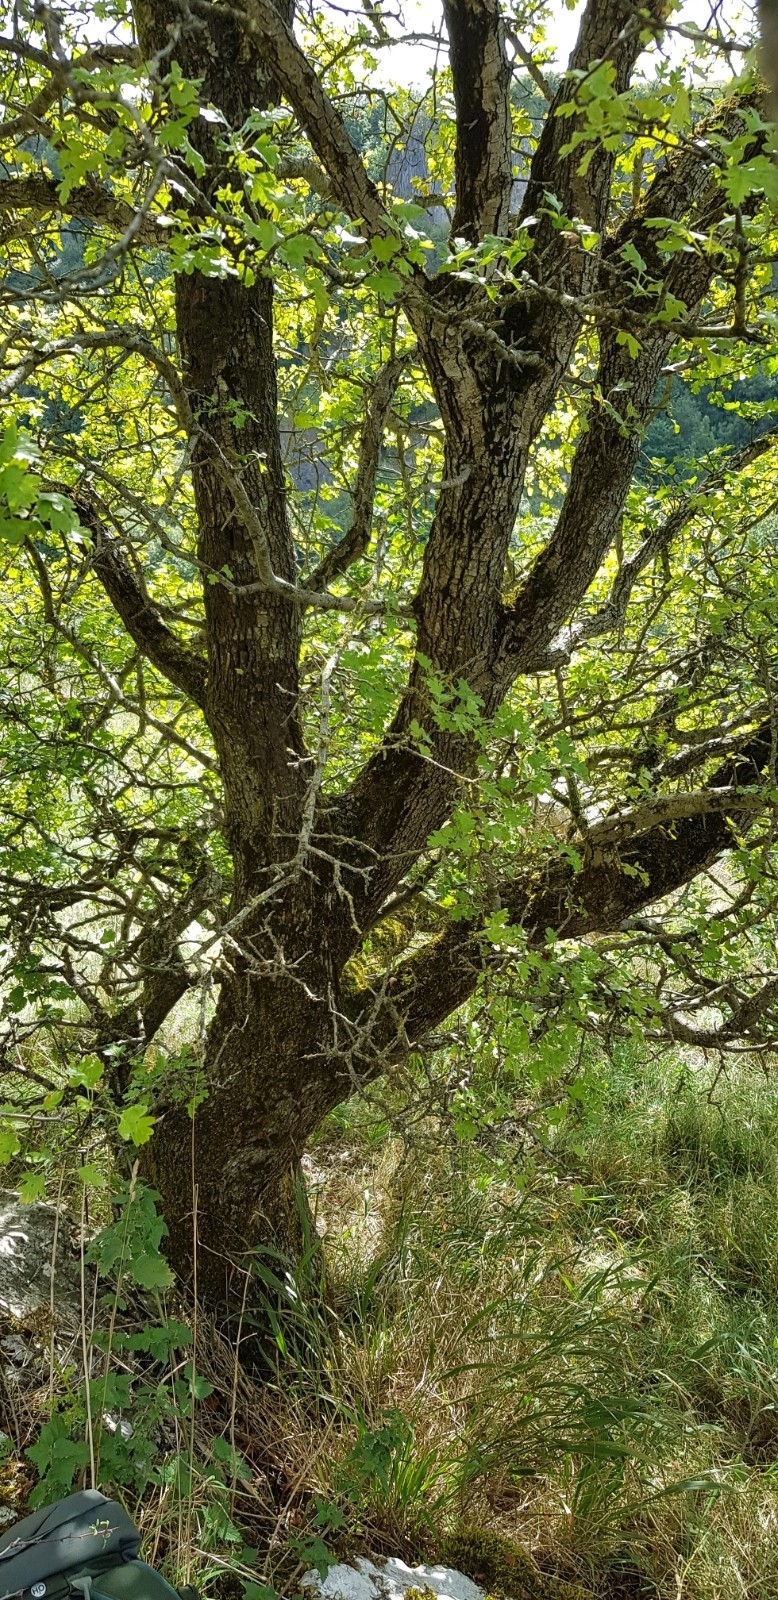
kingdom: Plantae
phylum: Bryophyta
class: Bryopsida
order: Hypnales
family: Brachytheciaceae
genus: Homalothecium
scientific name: Homalothecium sericeum
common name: Silky wall feather-moss
